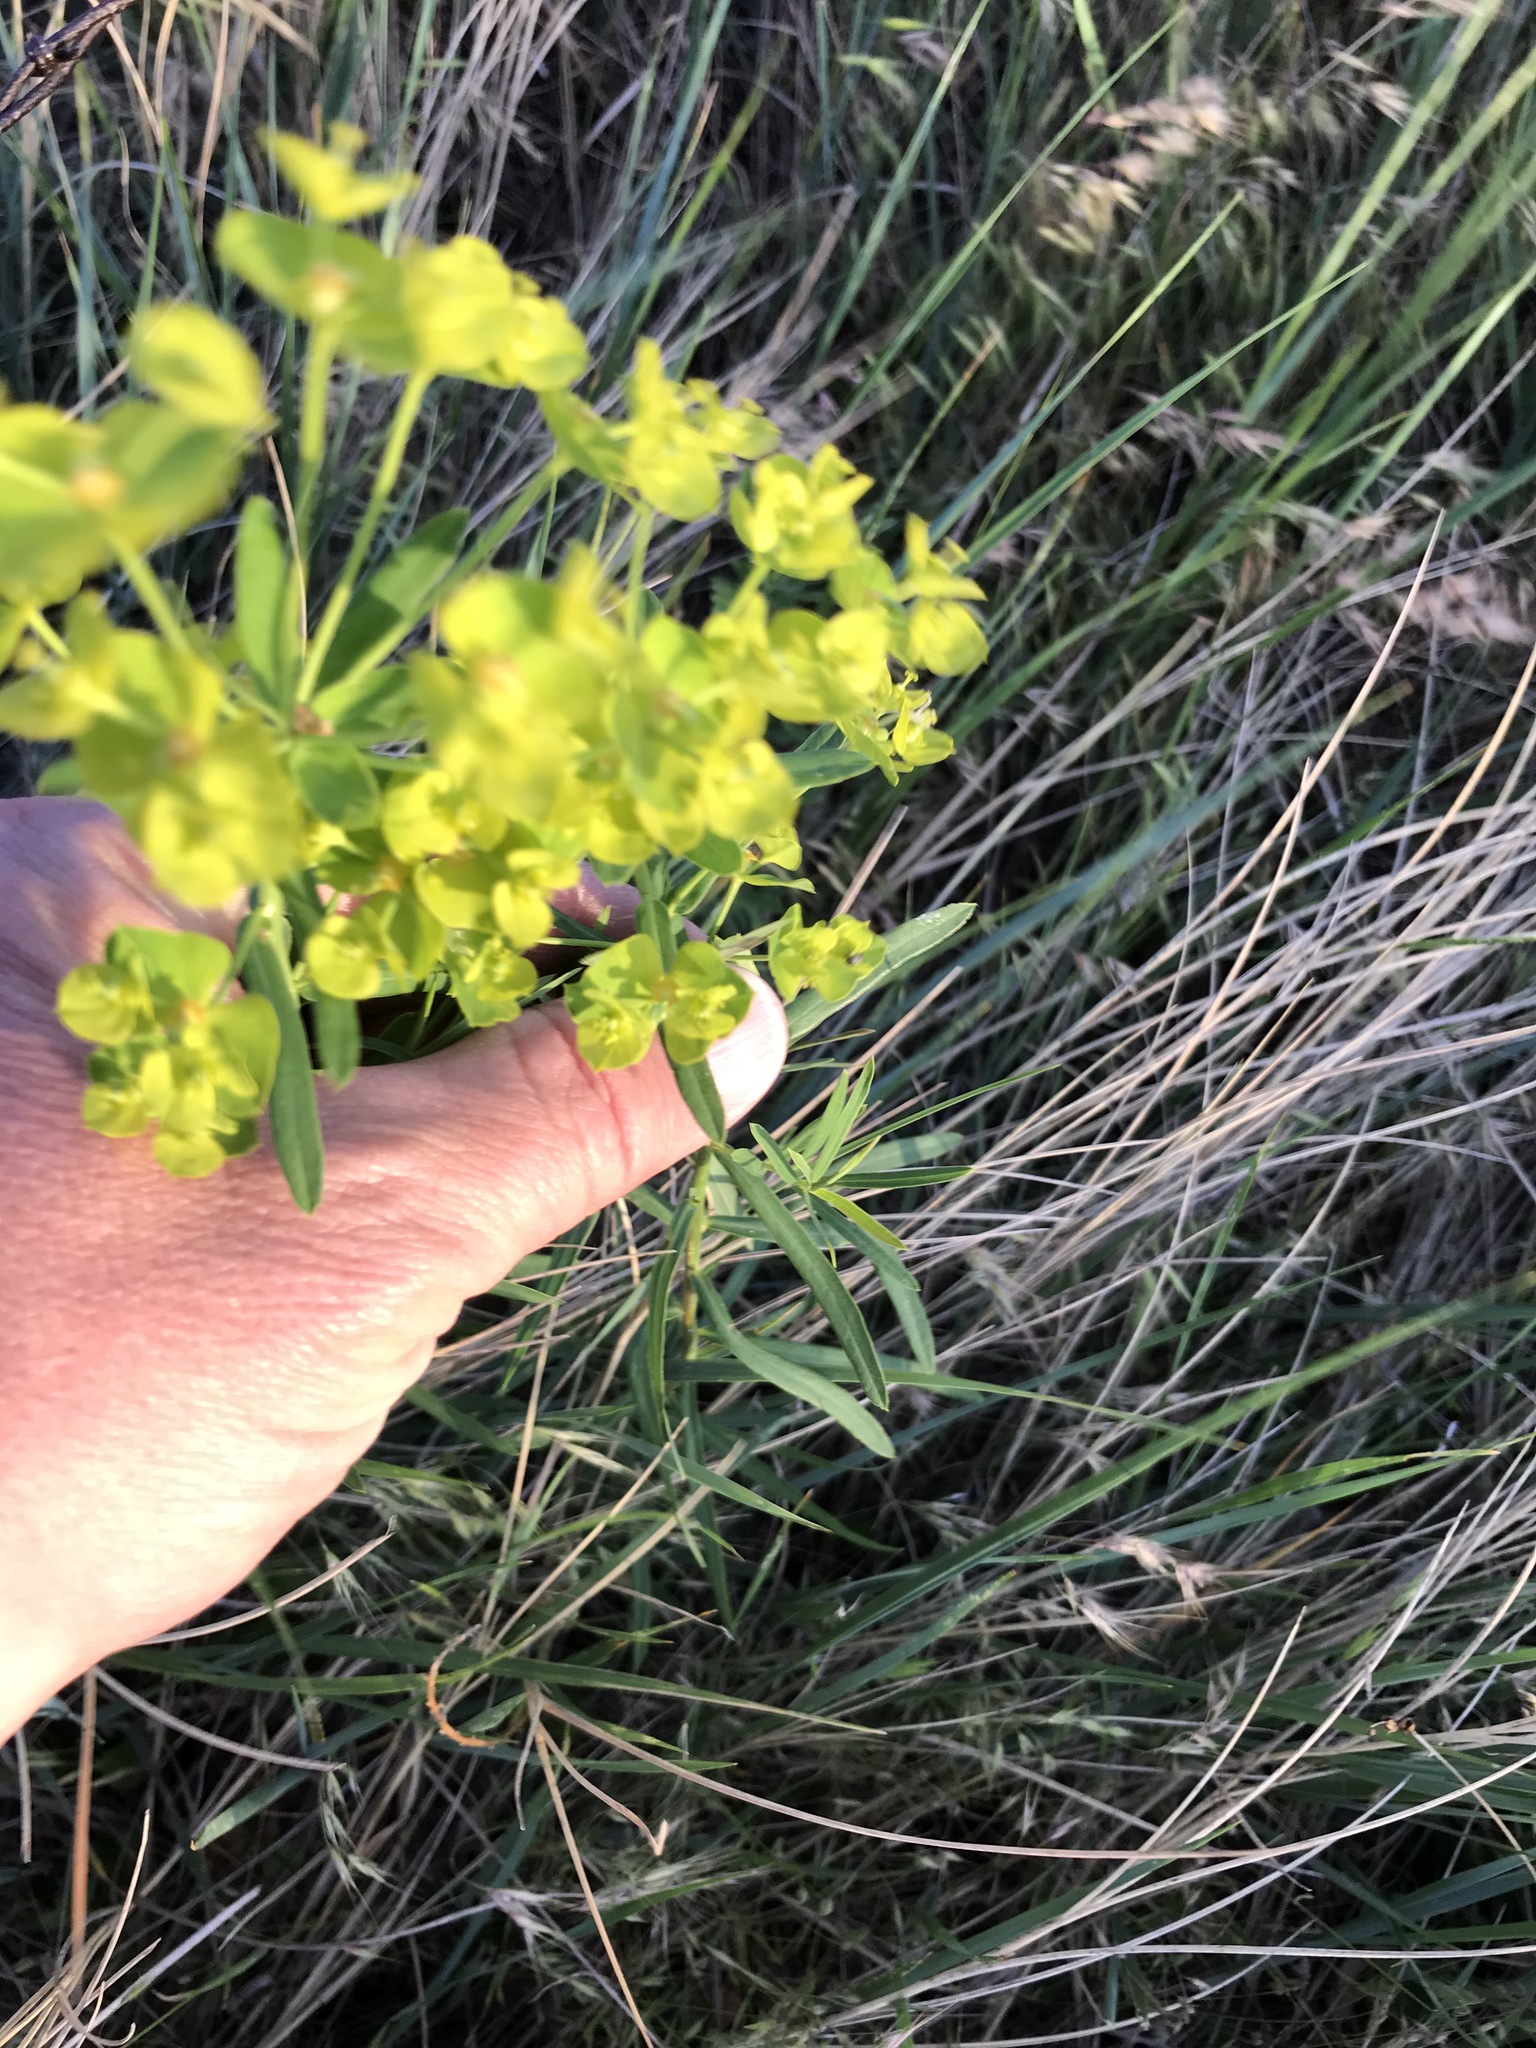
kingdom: Plantae
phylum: Tracheophyta
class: Magnoliopsida
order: Malpighiales
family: Euphorbiaceae
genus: Euphorbia
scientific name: Euphorbia virgata
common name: Leafy spurge
